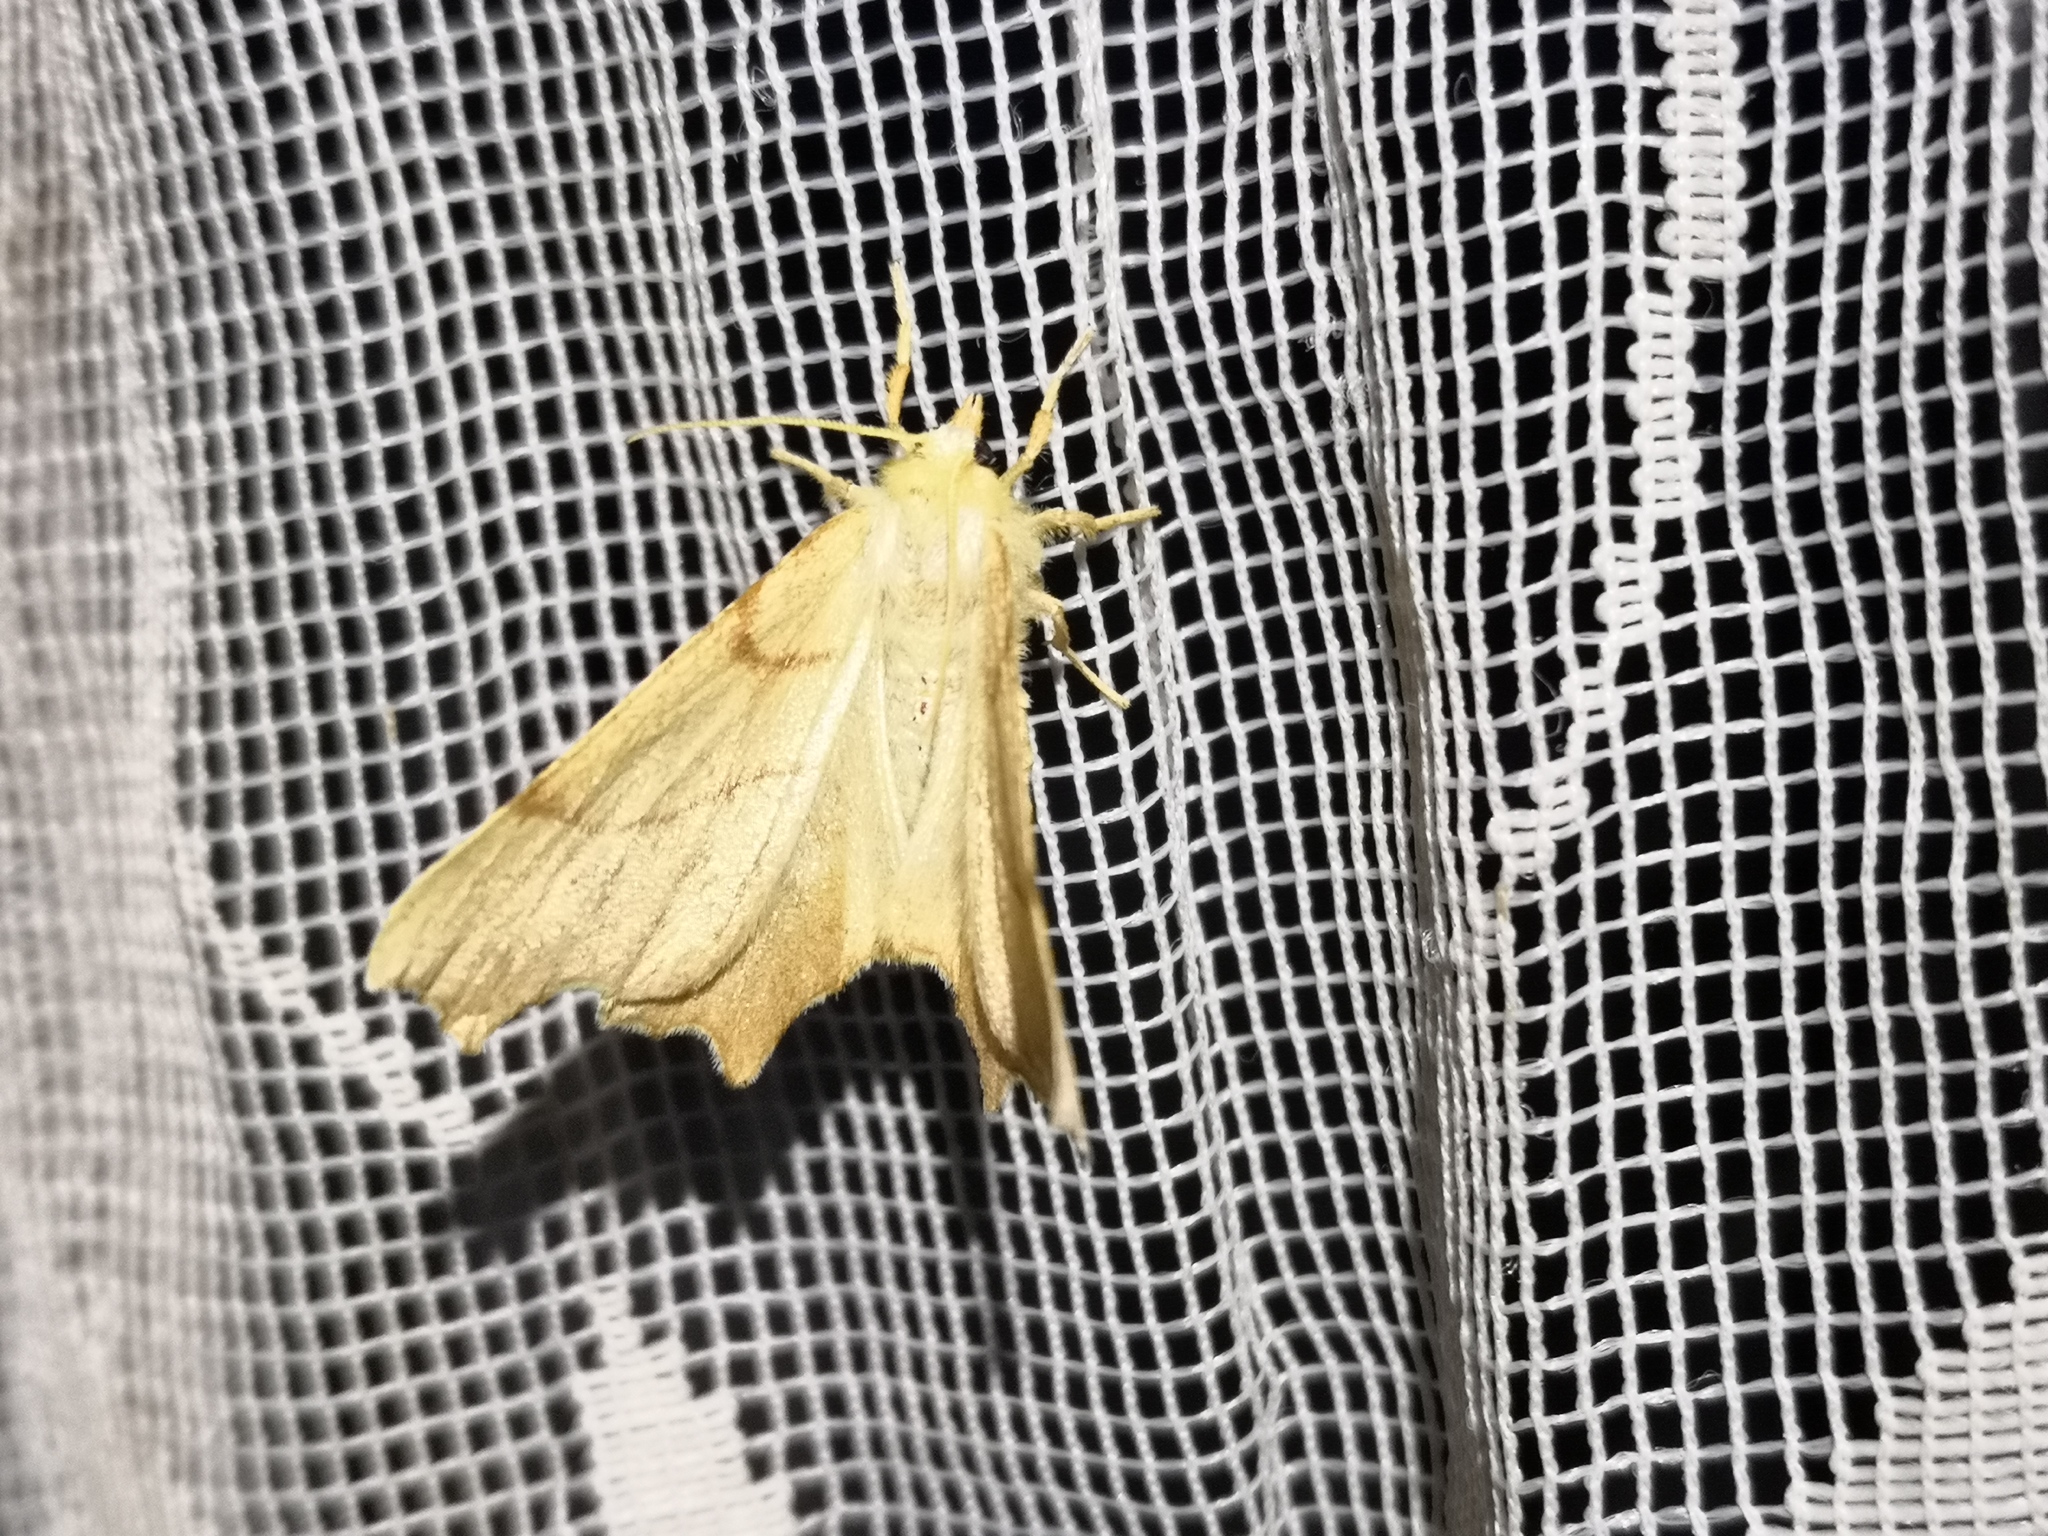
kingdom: Animalia
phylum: Arthropoda
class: Insecta
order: Lepidoptera
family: Geometridae
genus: Ennomos
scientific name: Ennomos erosaria
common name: September thorn
